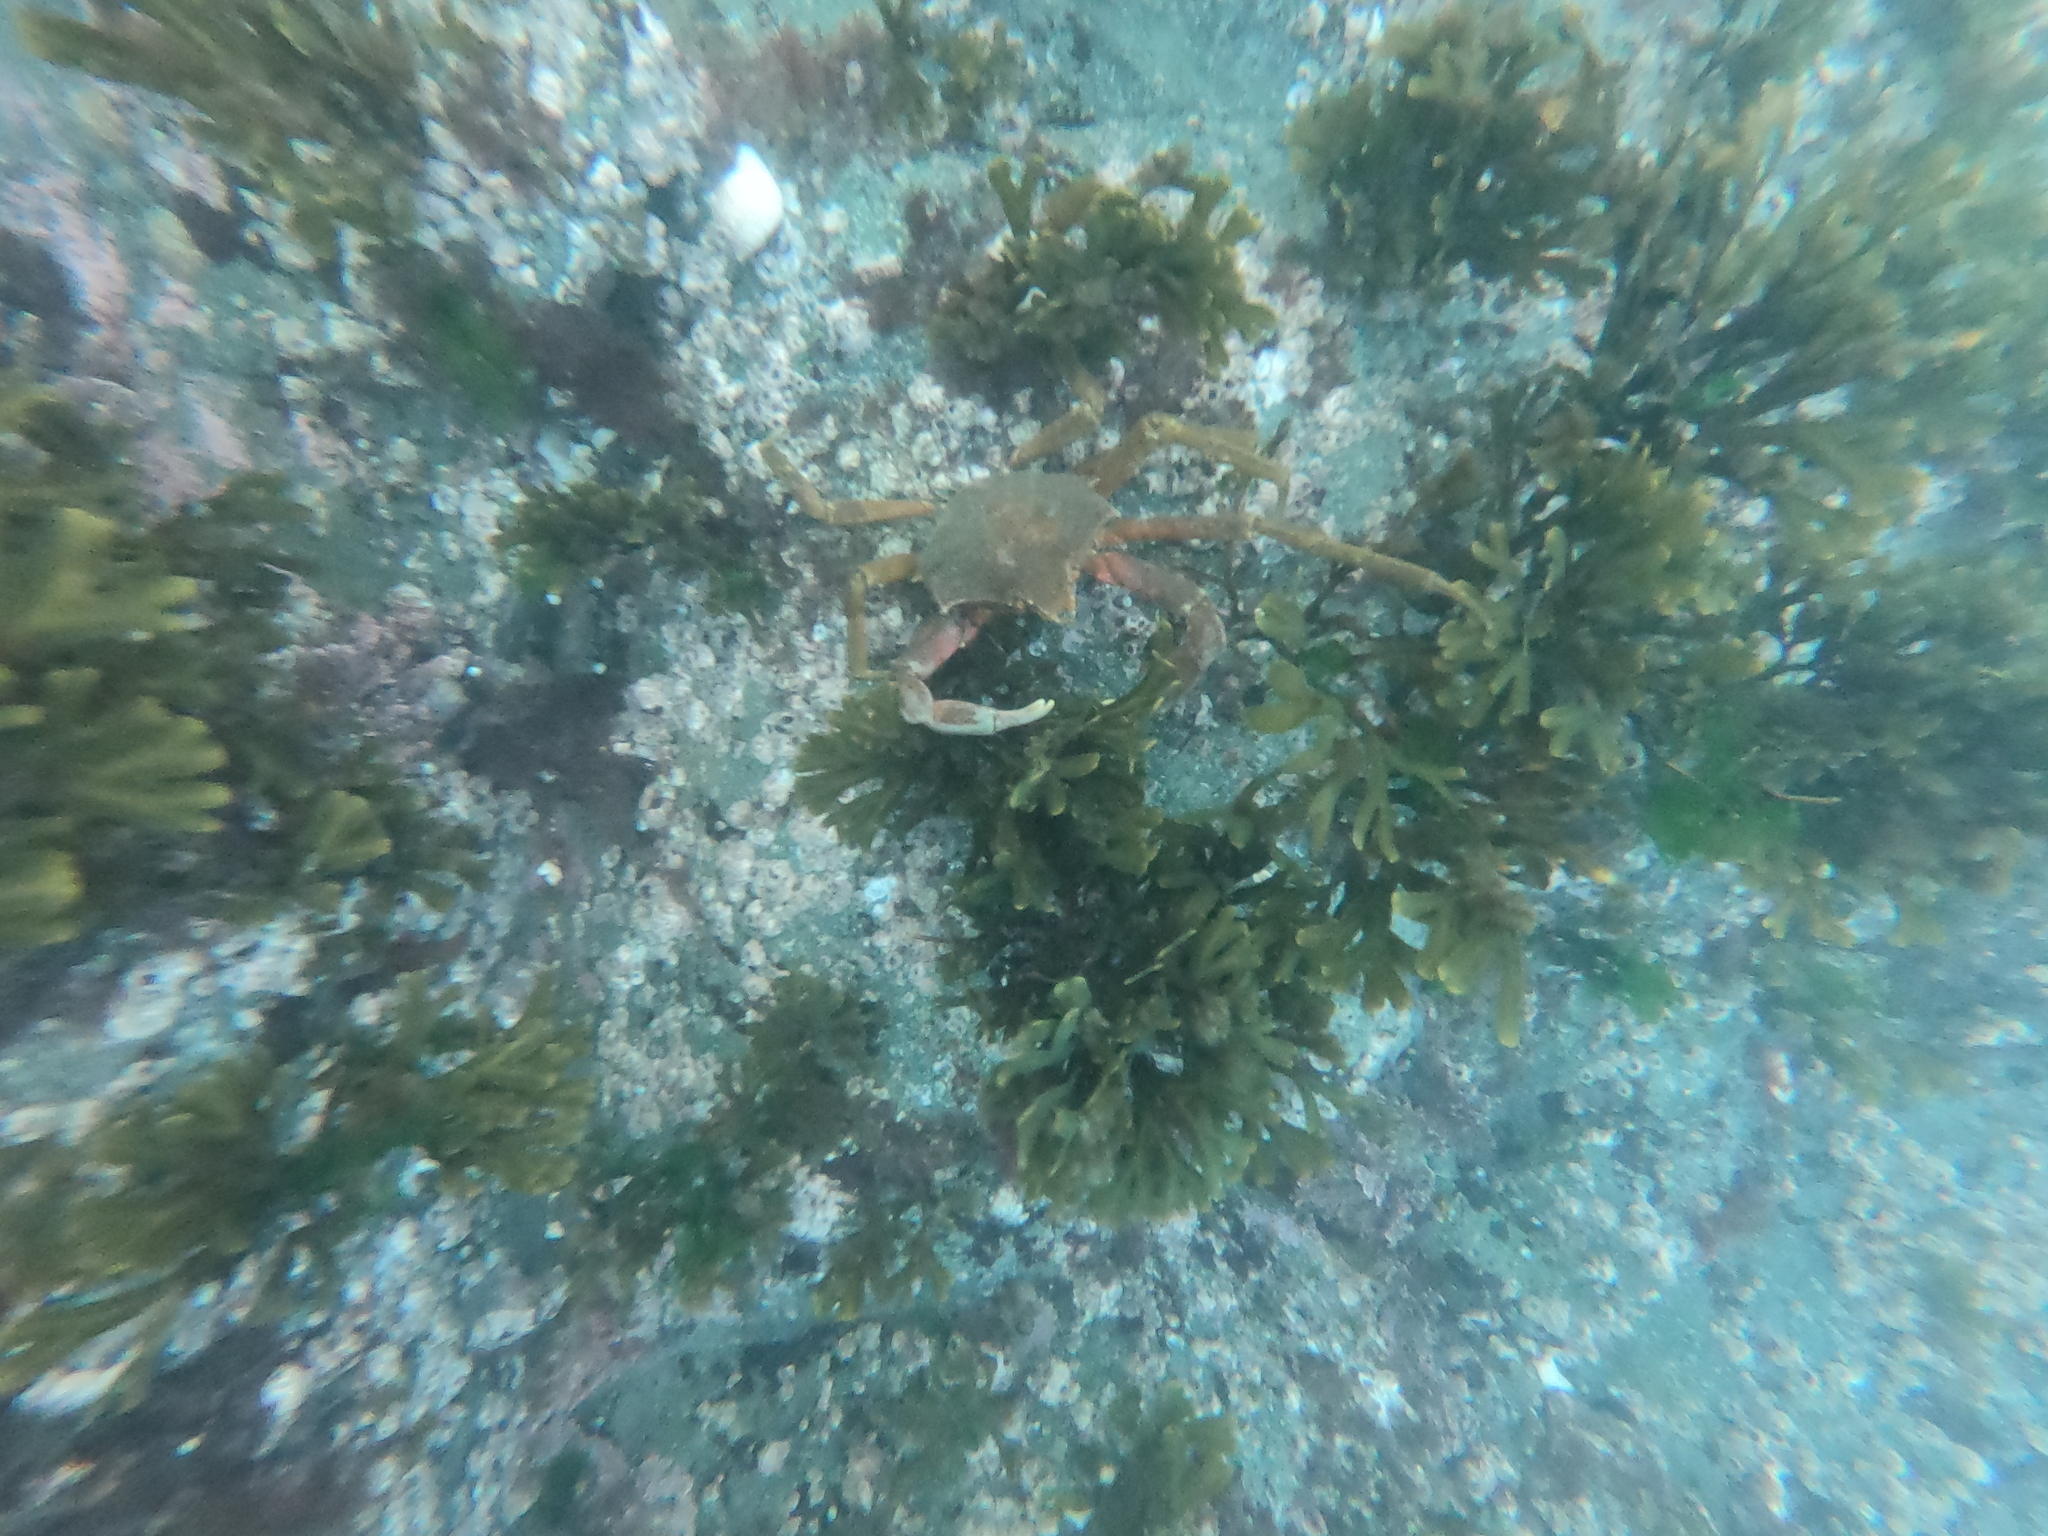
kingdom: Animalia
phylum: Arthropoda
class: Malacostraca
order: Decapoda
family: Epialtidae
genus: Pugettia
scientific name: Pugettia producta
